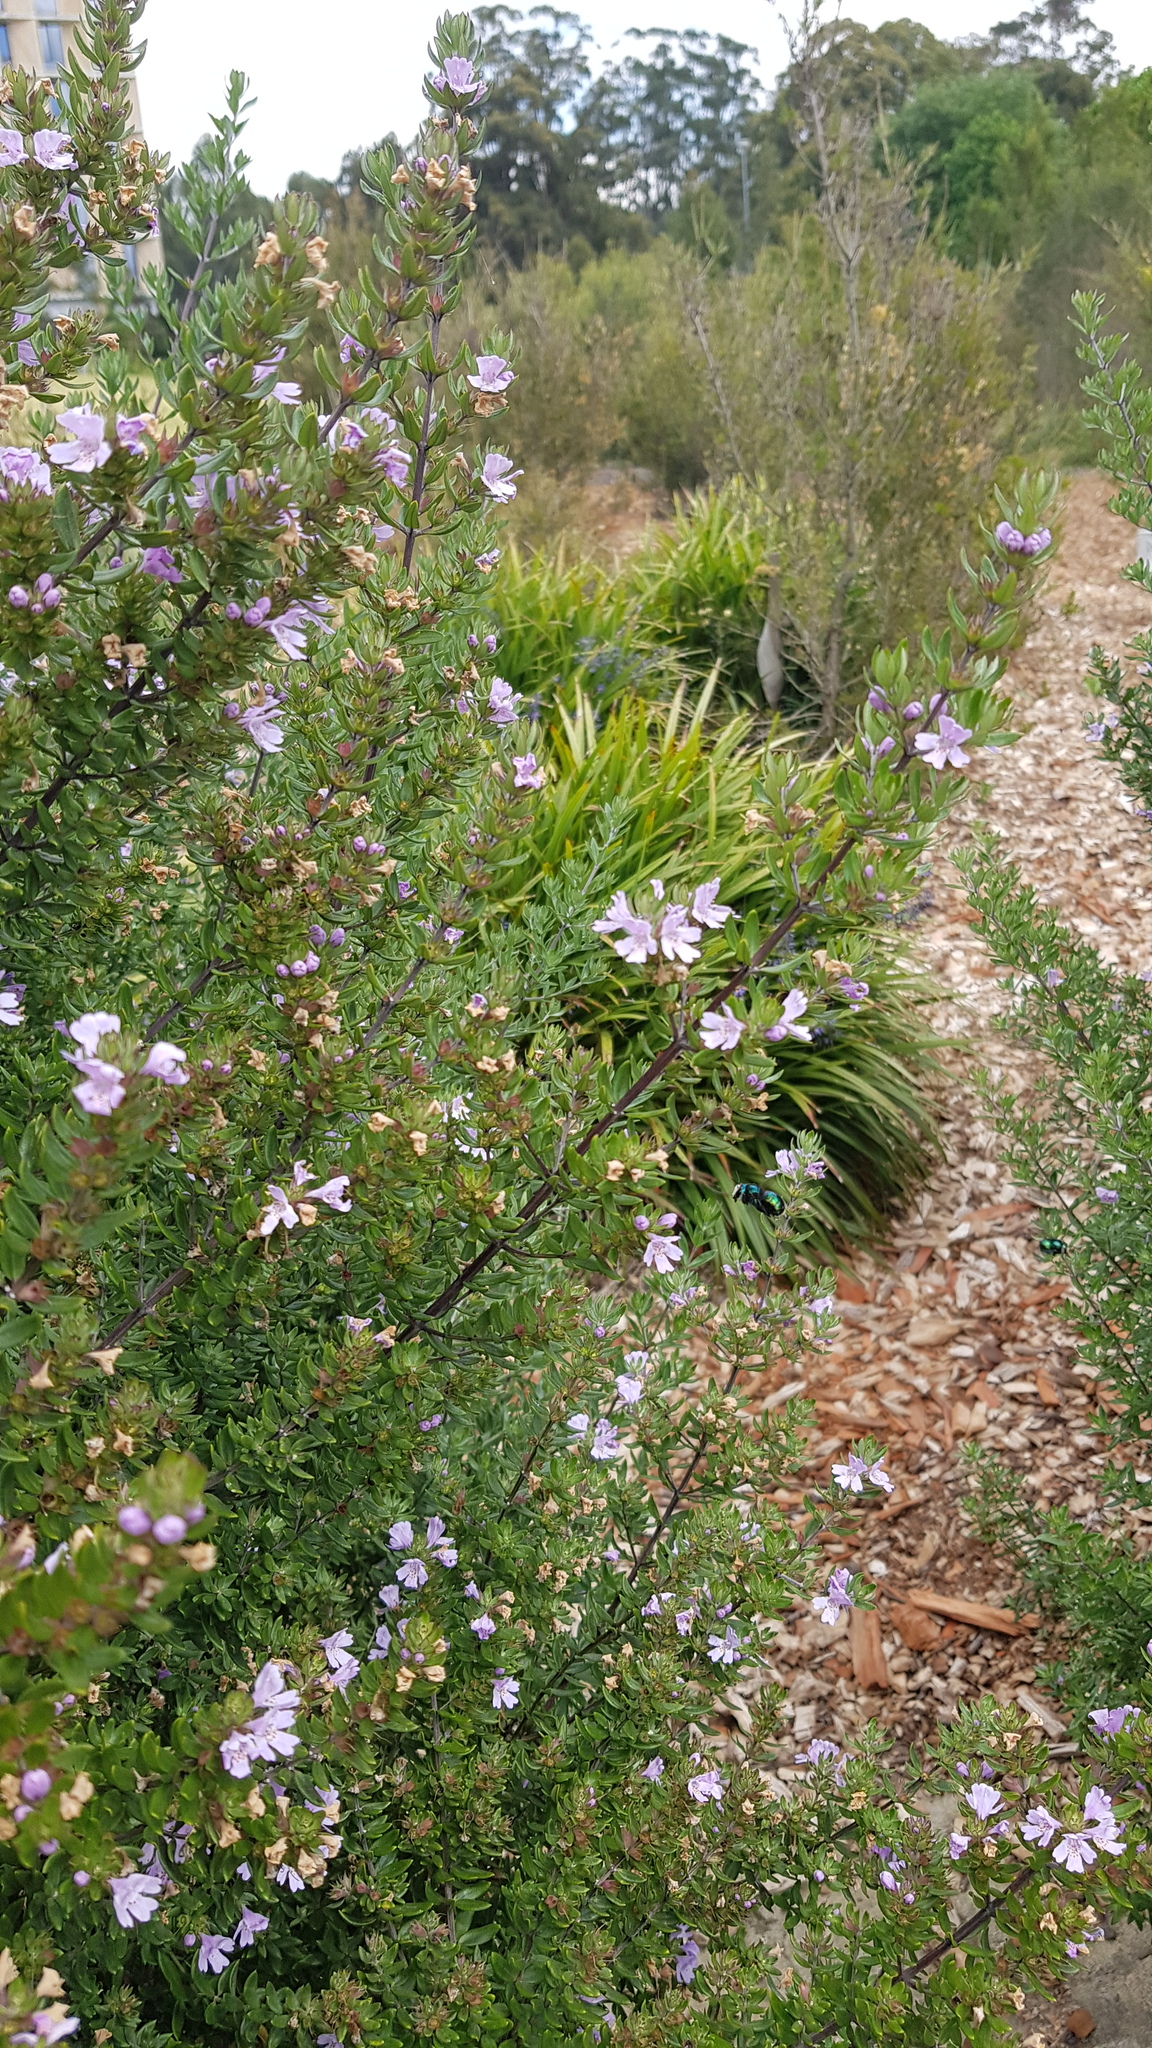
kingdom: Animalia
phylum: Arthropoda
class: Insecta
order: Hymenoptera
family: Apidae
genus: Xylocopa
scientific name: Xylocopa aeratus
